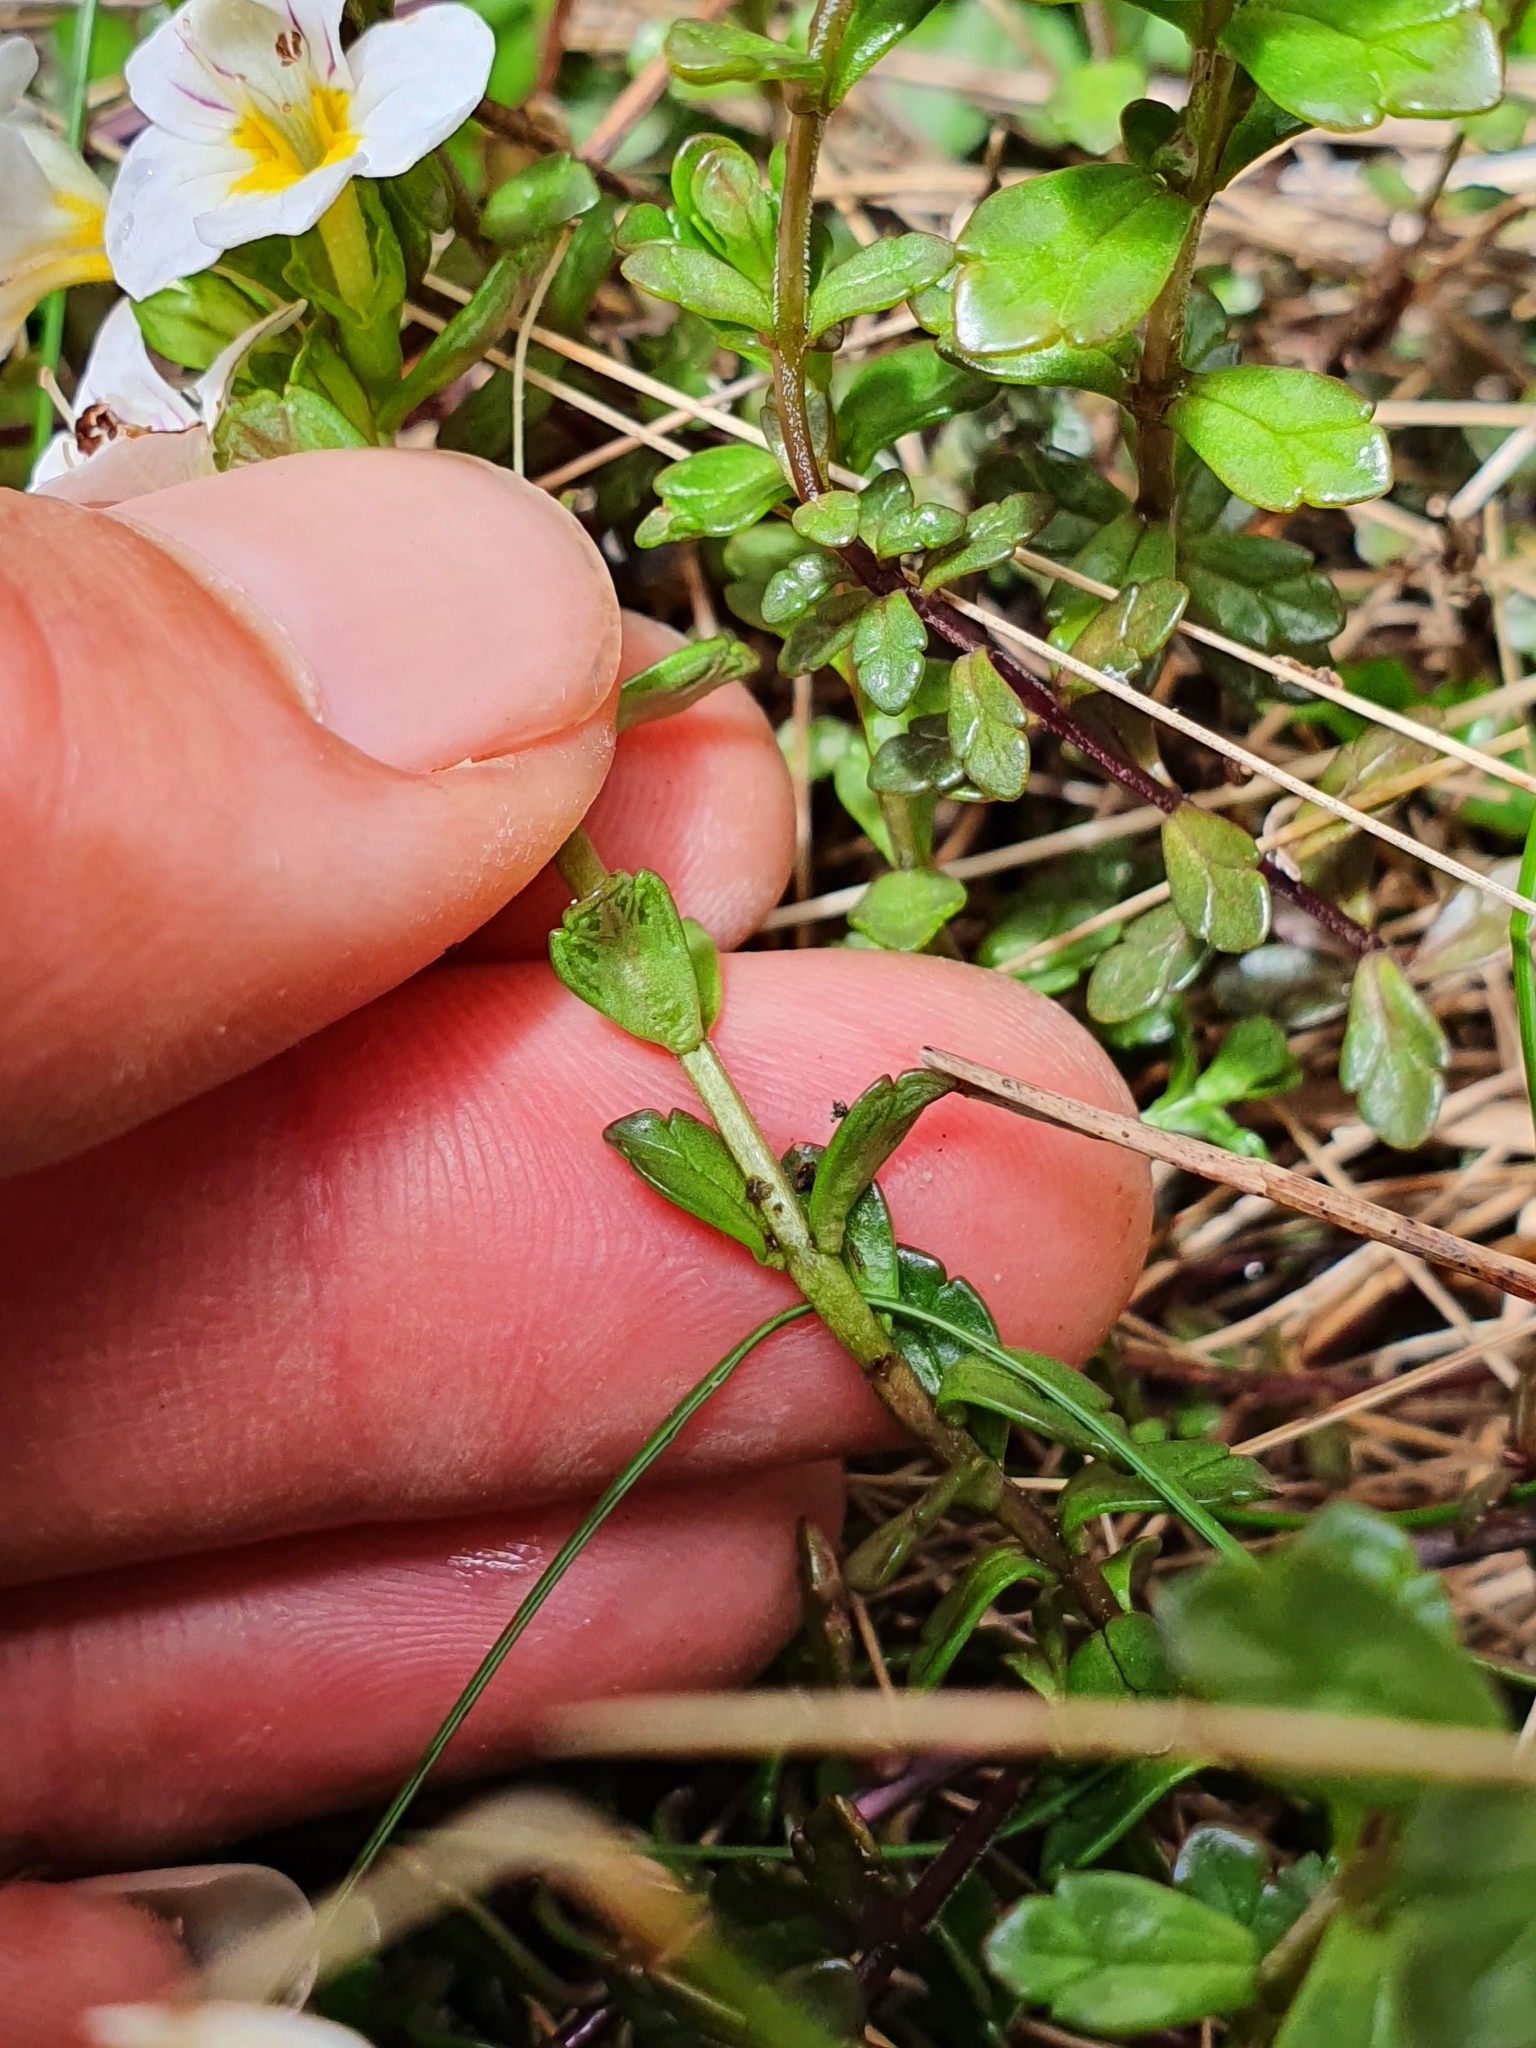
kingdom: Plantae
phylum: Tracheophyta
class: Magnoliopsida
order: Lamiales
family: Orobanchaceae
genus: Euphrasia
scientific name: Euphrasia laingii
